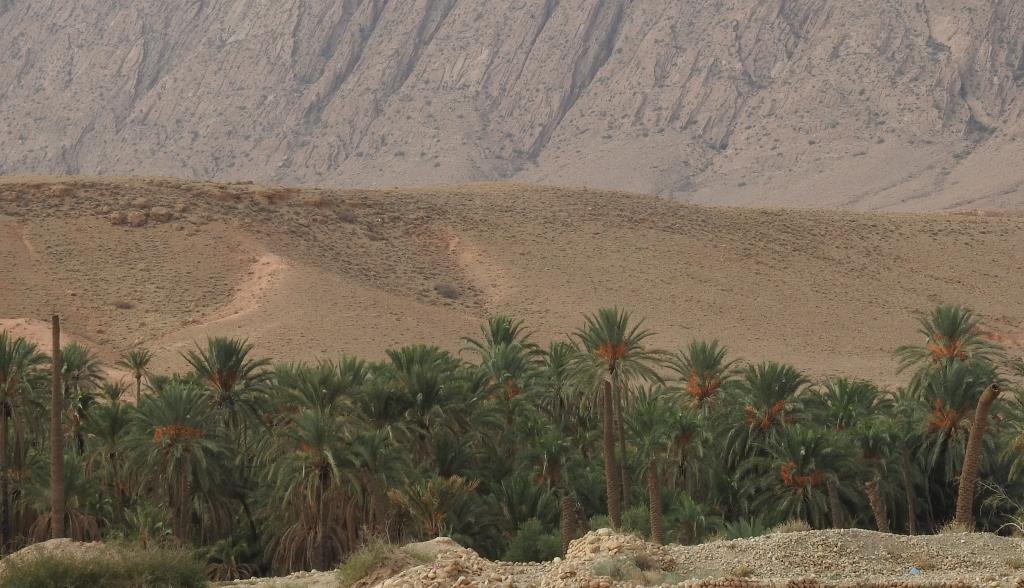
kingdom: Plantae
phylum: Tracheophyta
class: Liliopsida
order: Arecales
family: Arecaceae
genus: Phoenix
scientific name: Phoenix dactylifera
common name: Date palm
